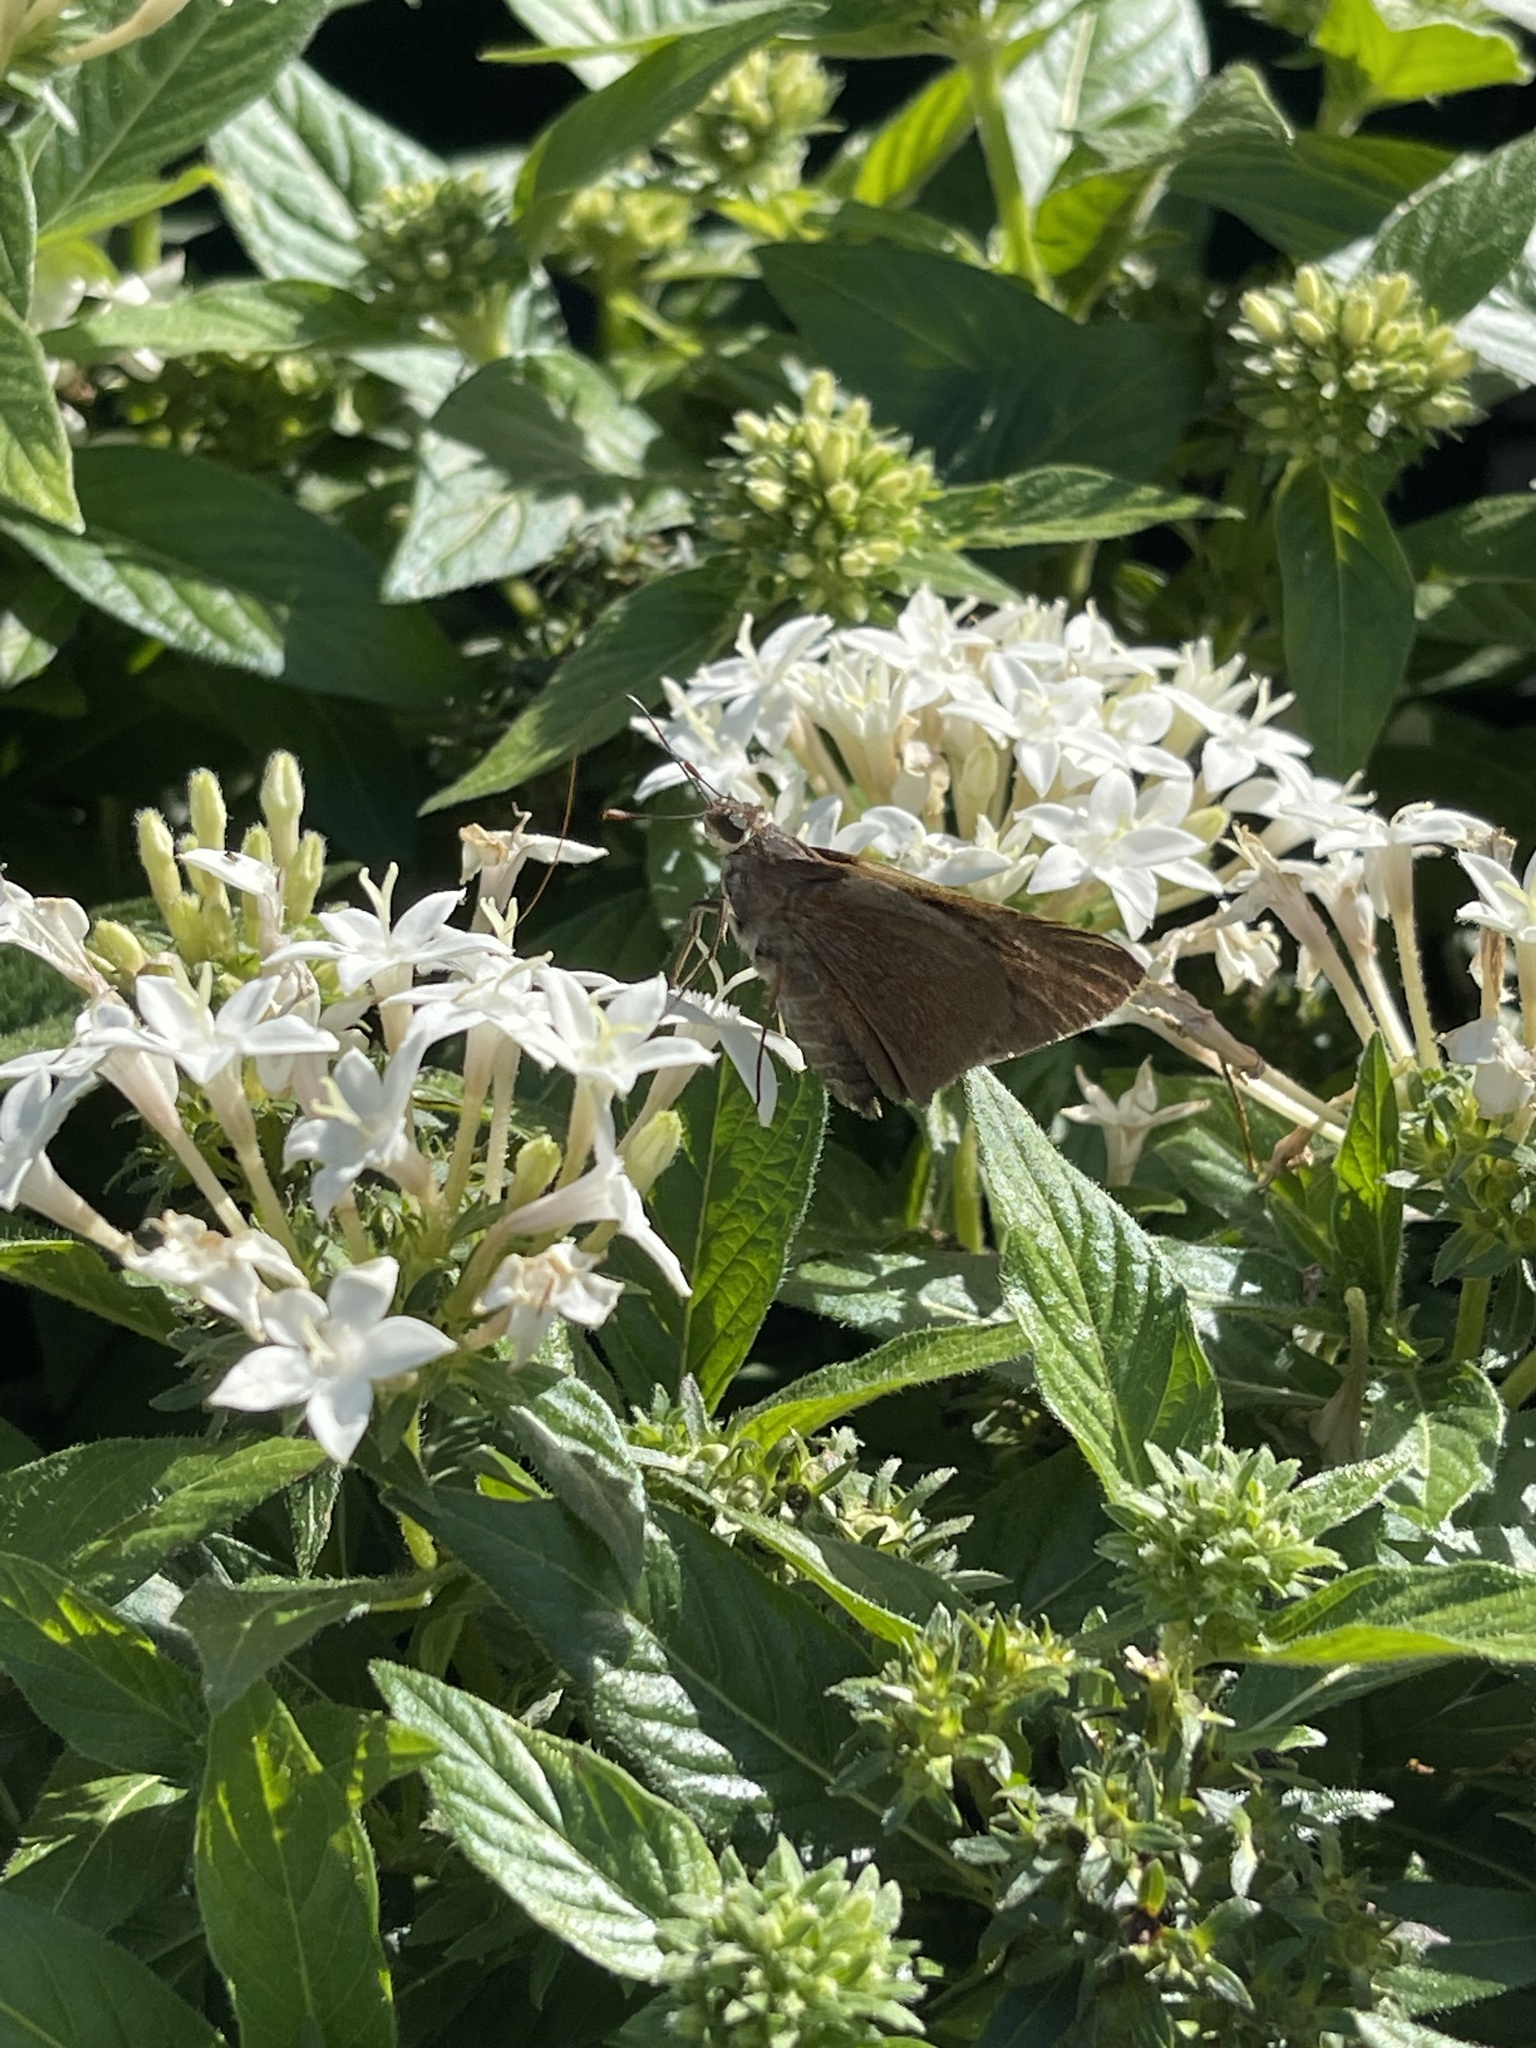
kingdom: Animalia
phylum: Arthropoda
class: Insecta
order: Lepidoptera
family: Hesperiidae
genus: Asbolis
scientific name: Asbolis capucinus
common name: Monk skipper
